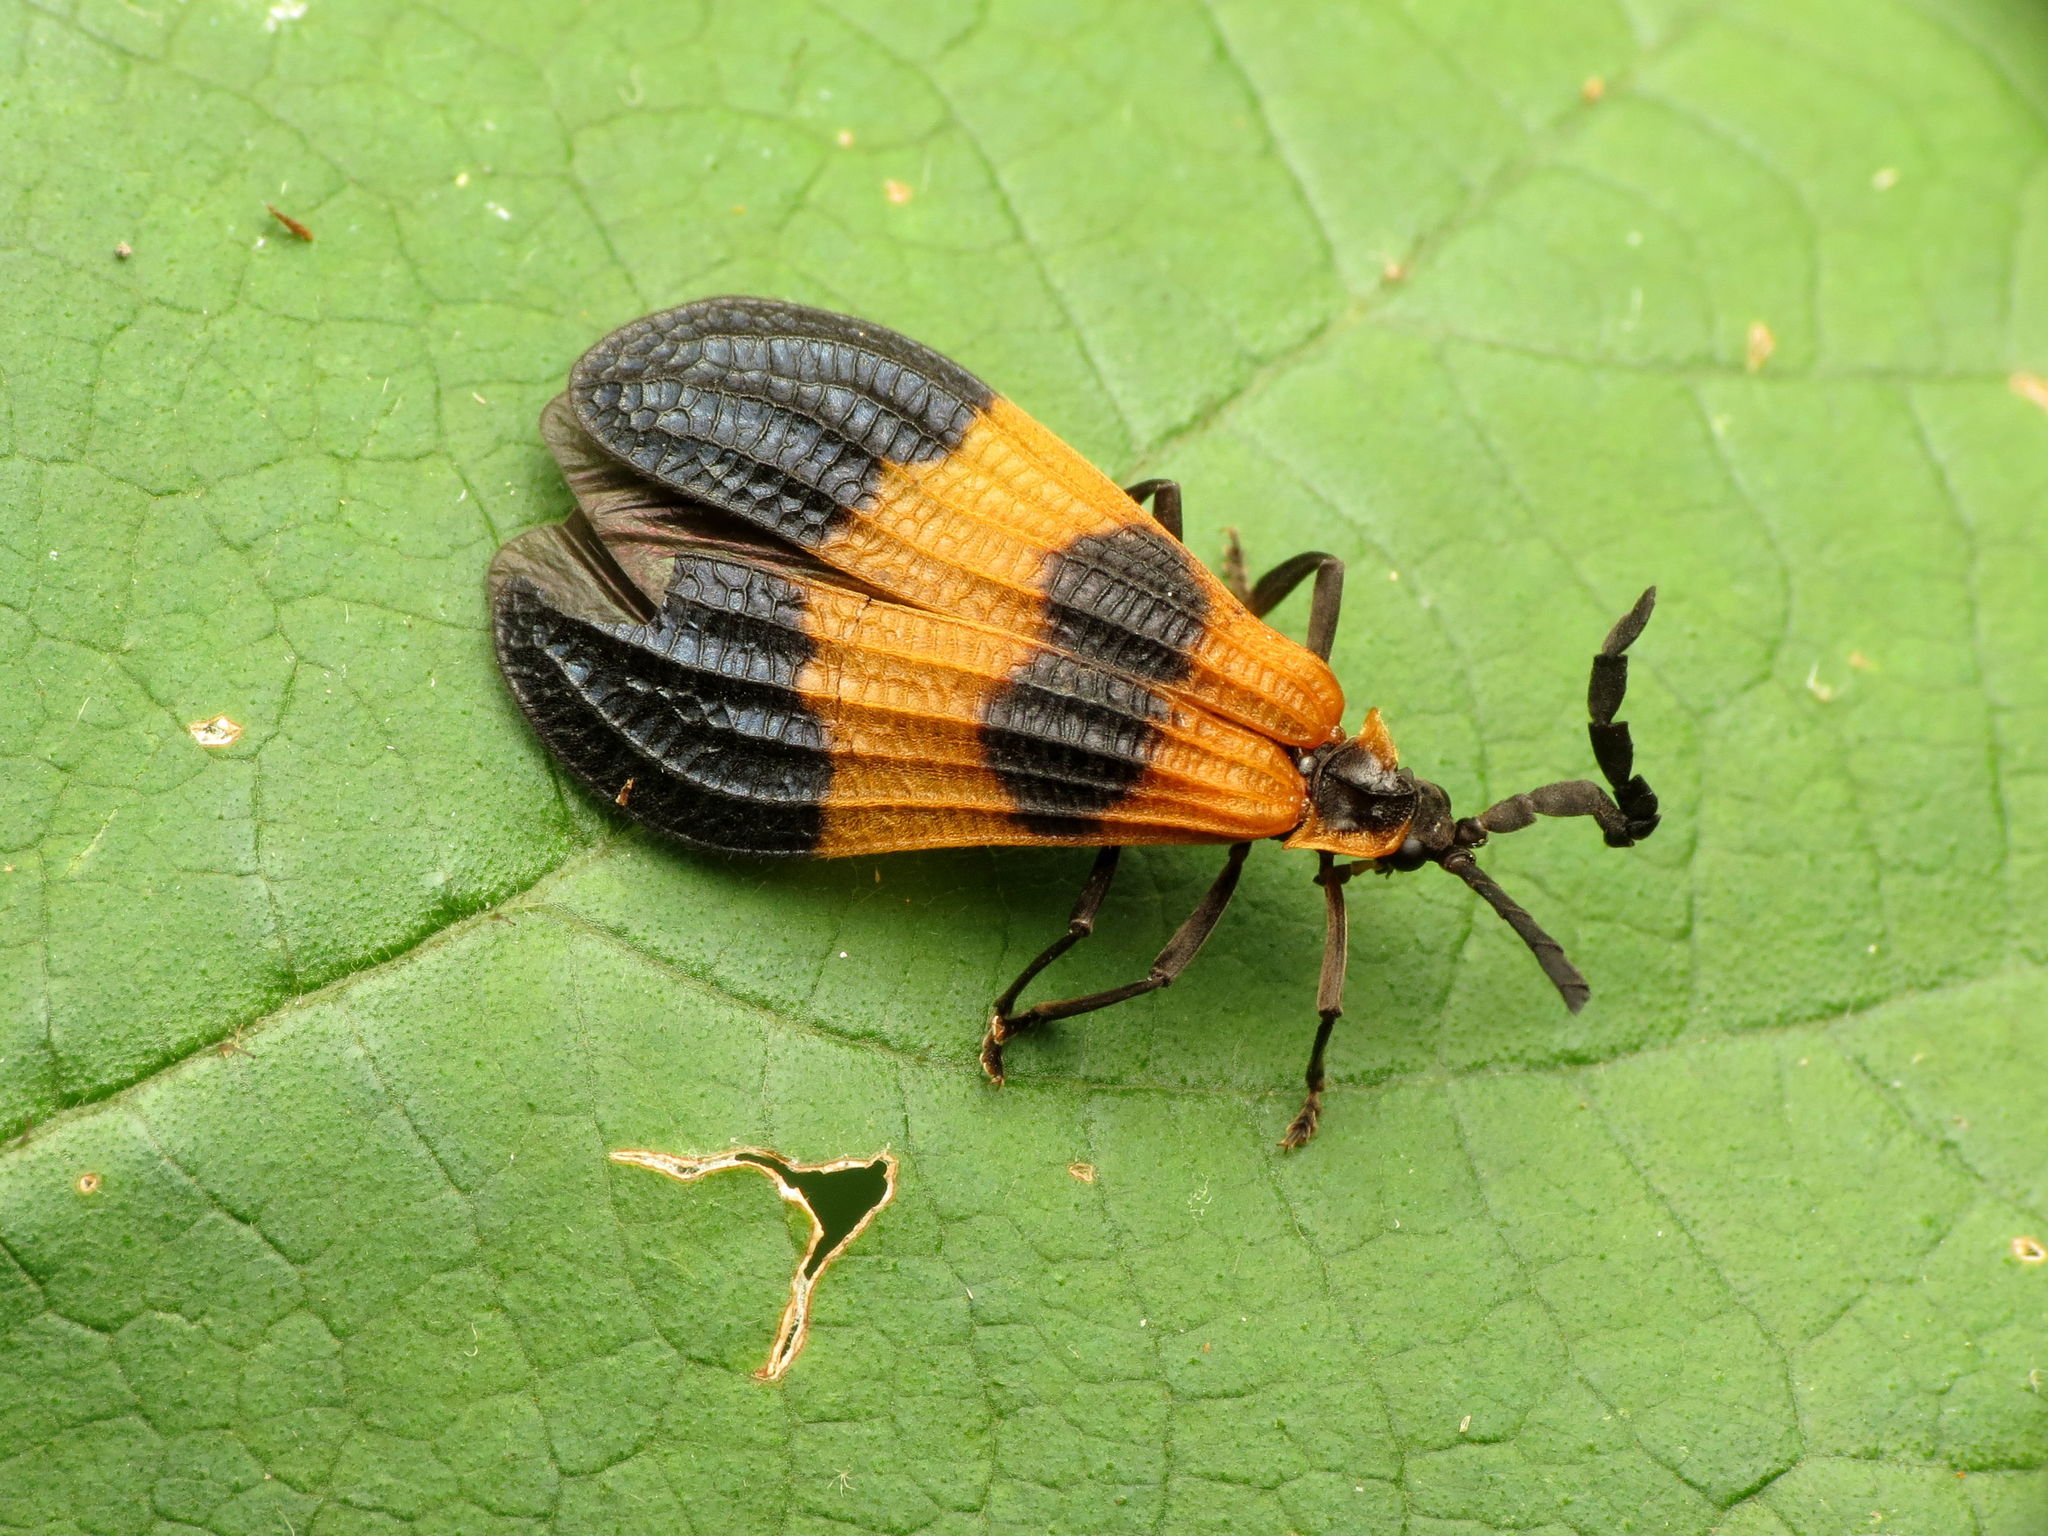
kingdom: Animalia
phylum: Arthropoda
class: Insecta
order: Coleoptera
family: Lycidae
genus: Calopteron
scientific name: Calopteron terminale
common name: End band net-winged beetle
